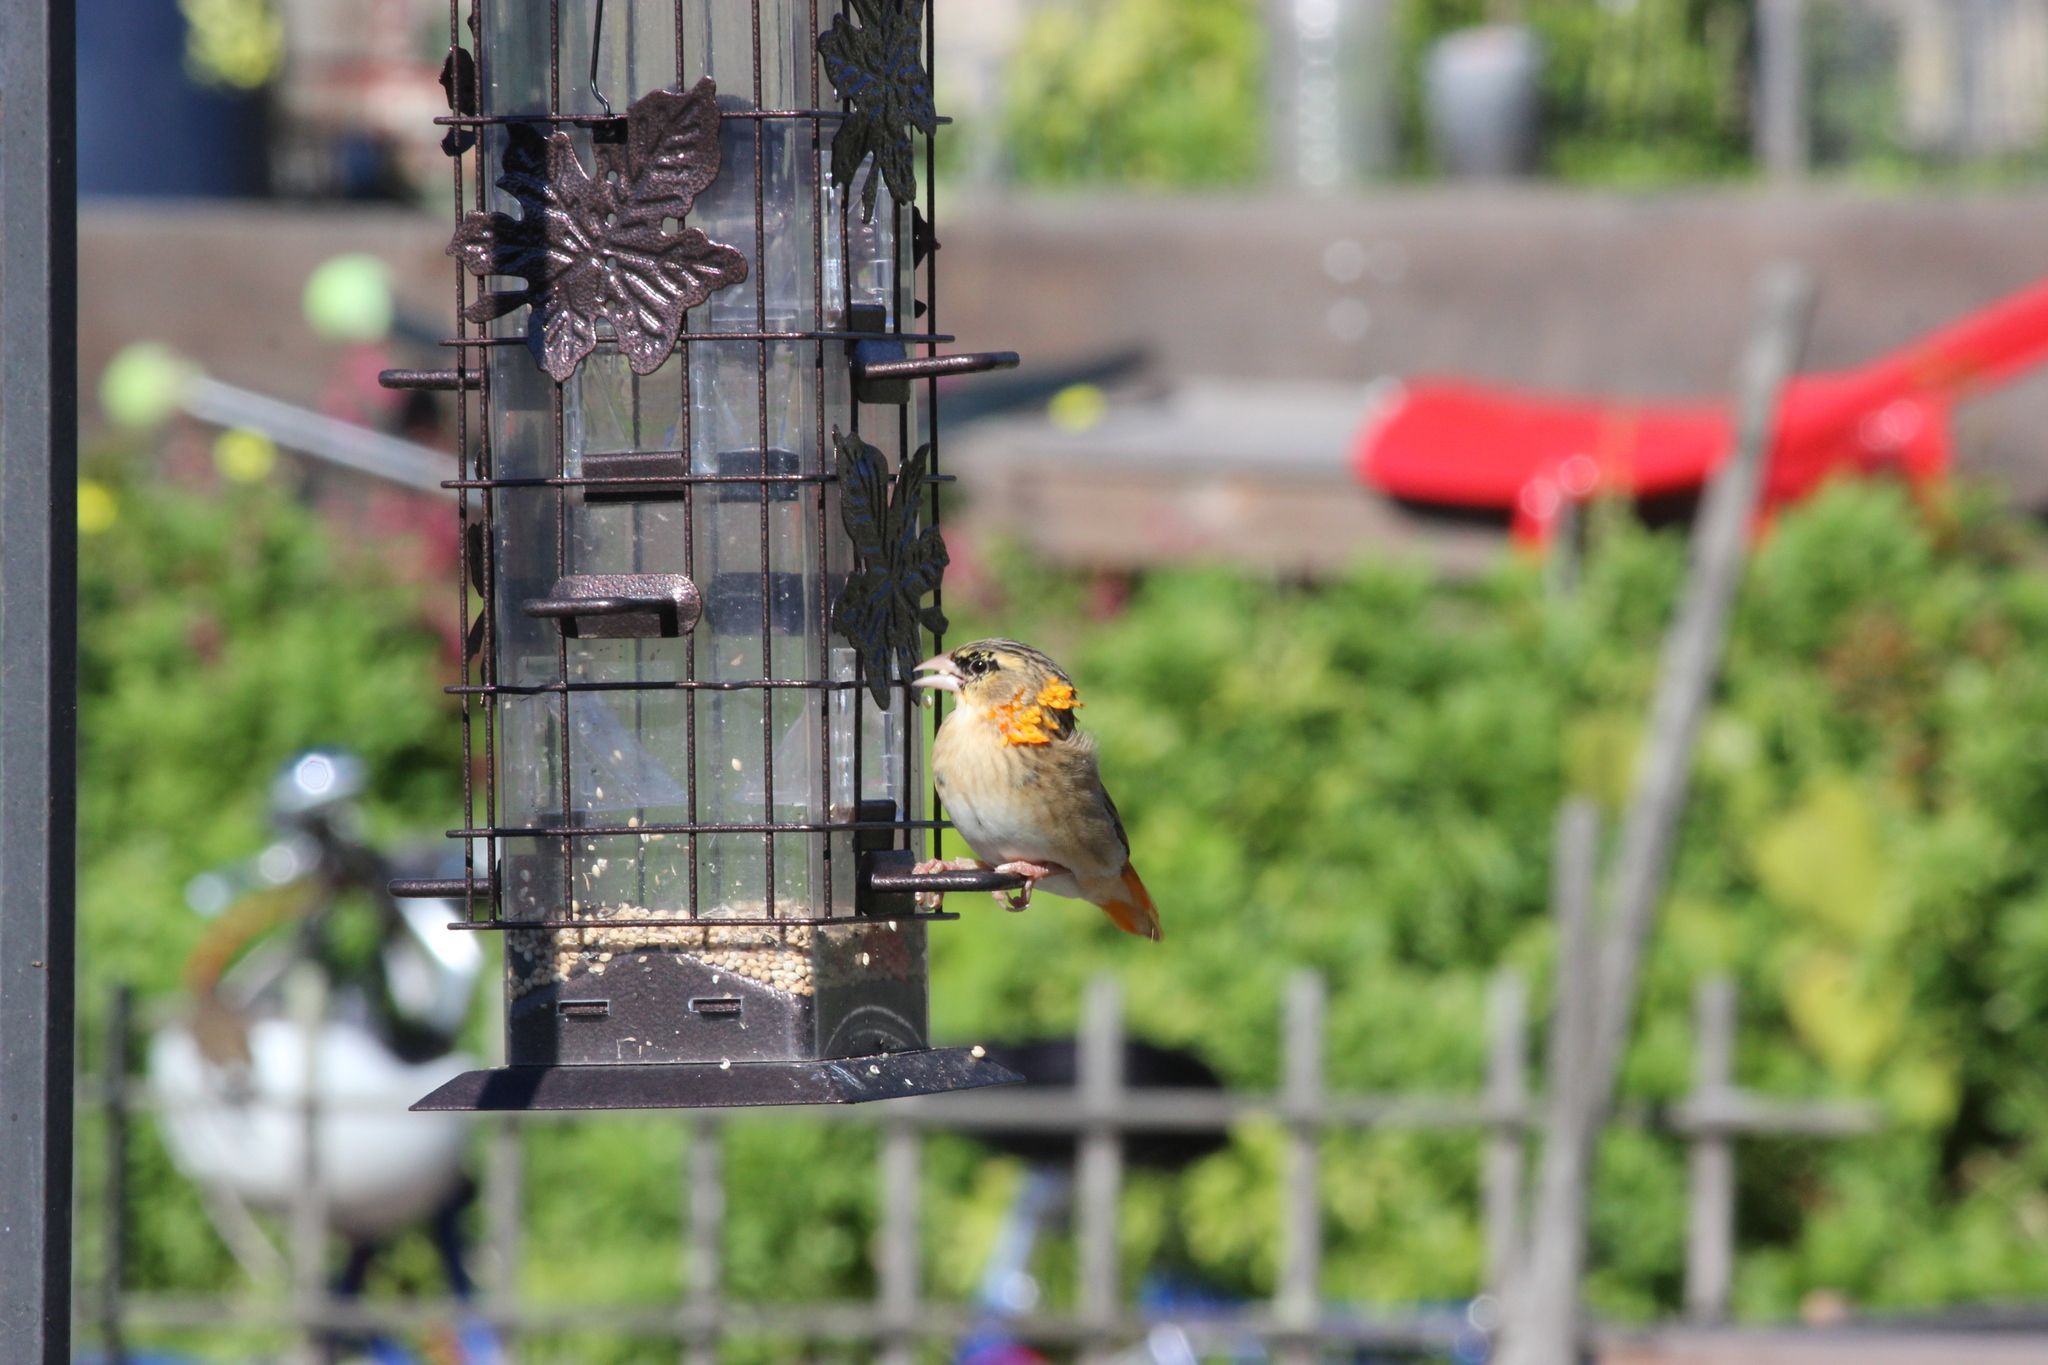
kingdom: Animalia
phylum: Chordata
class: Aves
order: Passeriformes
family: Ploceidae
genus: Euplectes
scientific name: Euplectes franciscanus
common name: Northern red bishop
